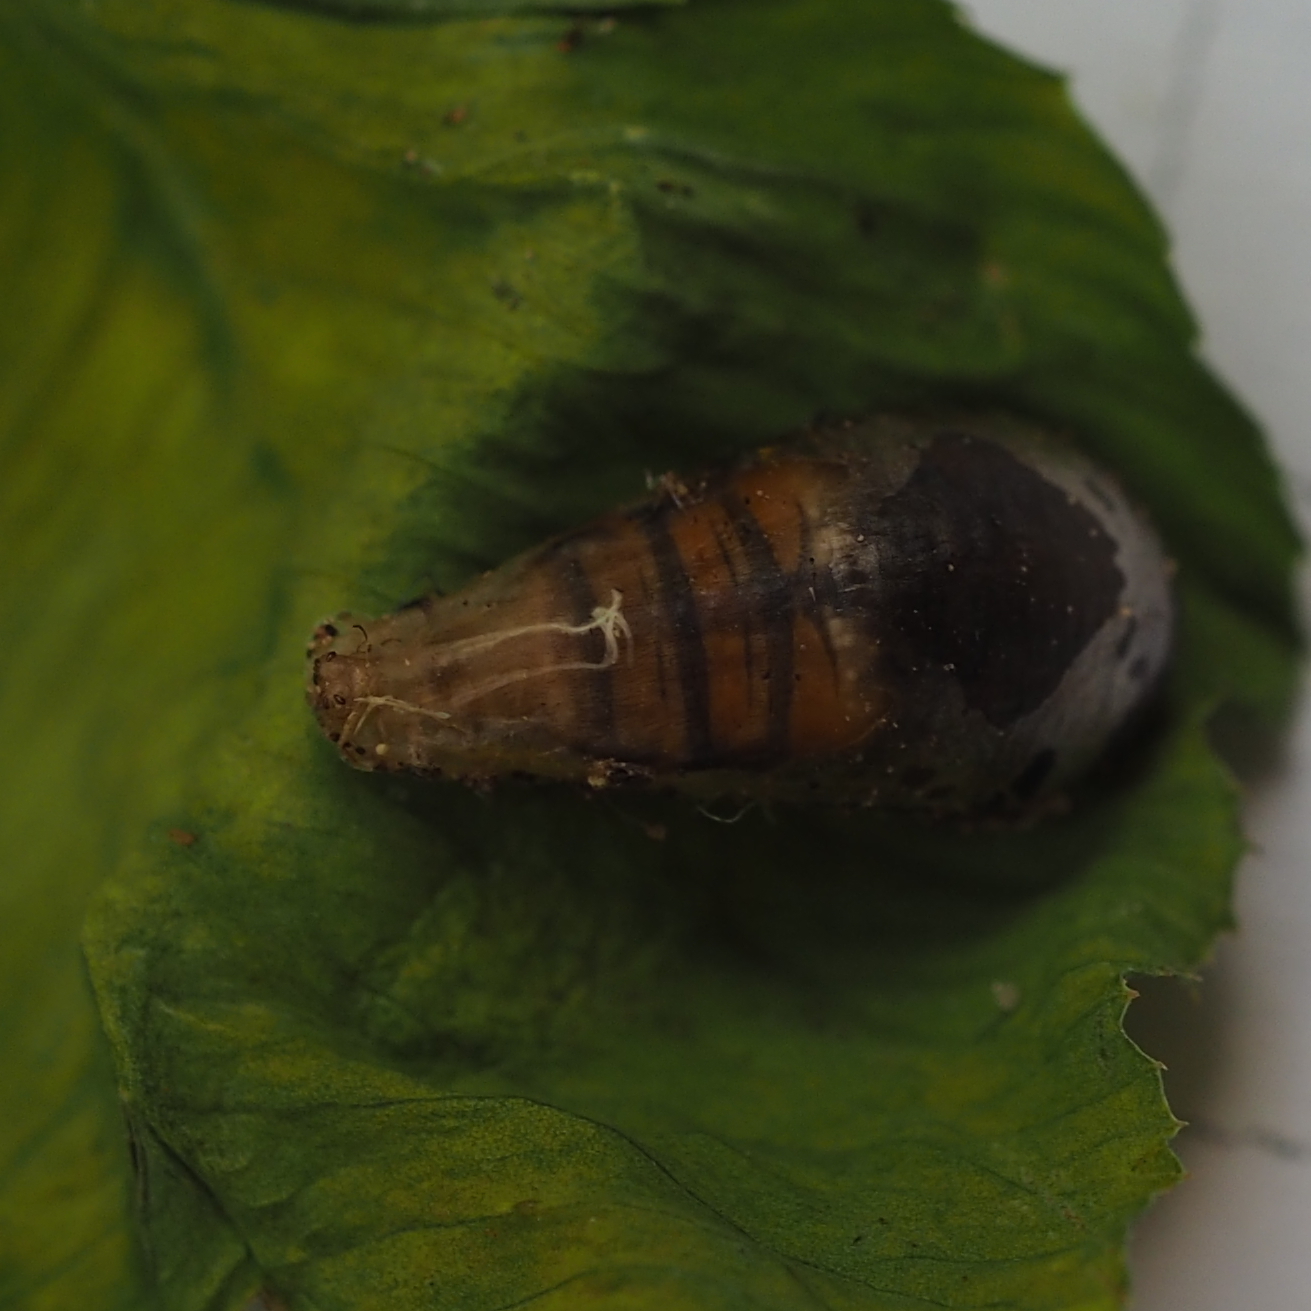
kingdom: Animalia
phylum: Arthropoda
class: Insecta
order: Diptera
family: Syrphidae
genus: Episyrphus
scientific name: Episyrphus balteatus
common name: Marmalade hoverfly
